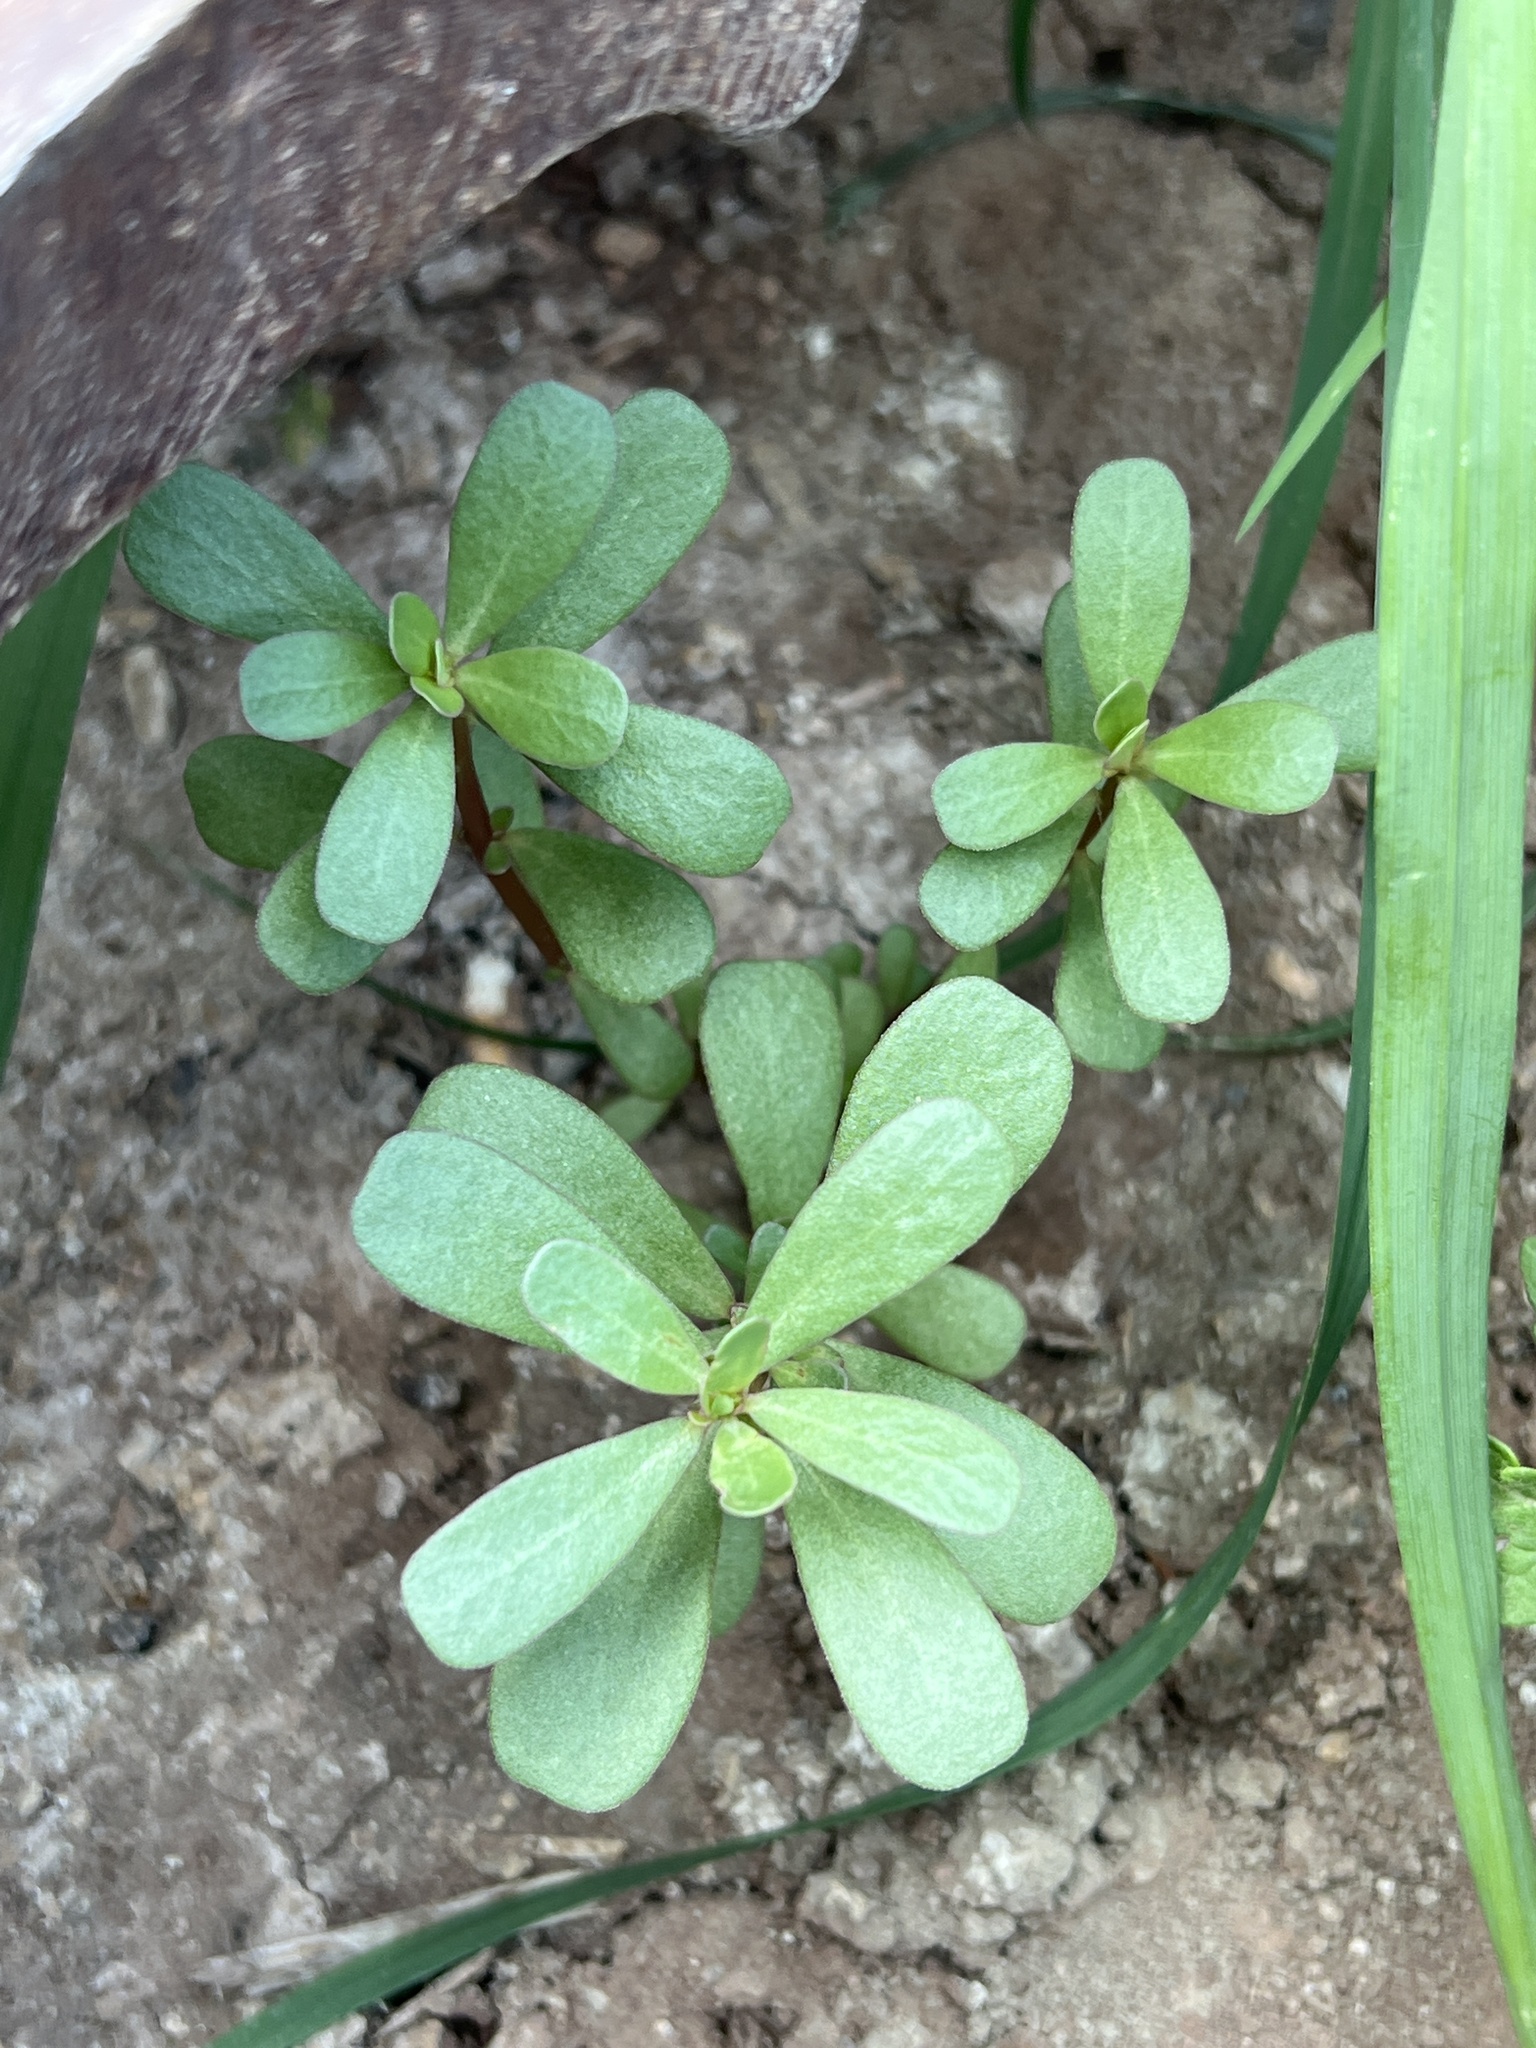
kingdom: Plantae
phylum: Tracheophyta
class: Magnoliopsida
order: Caryophyllales
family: Portulacaceae
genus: Portulaca
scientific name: Portulaca oleracea
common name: Common purslane
